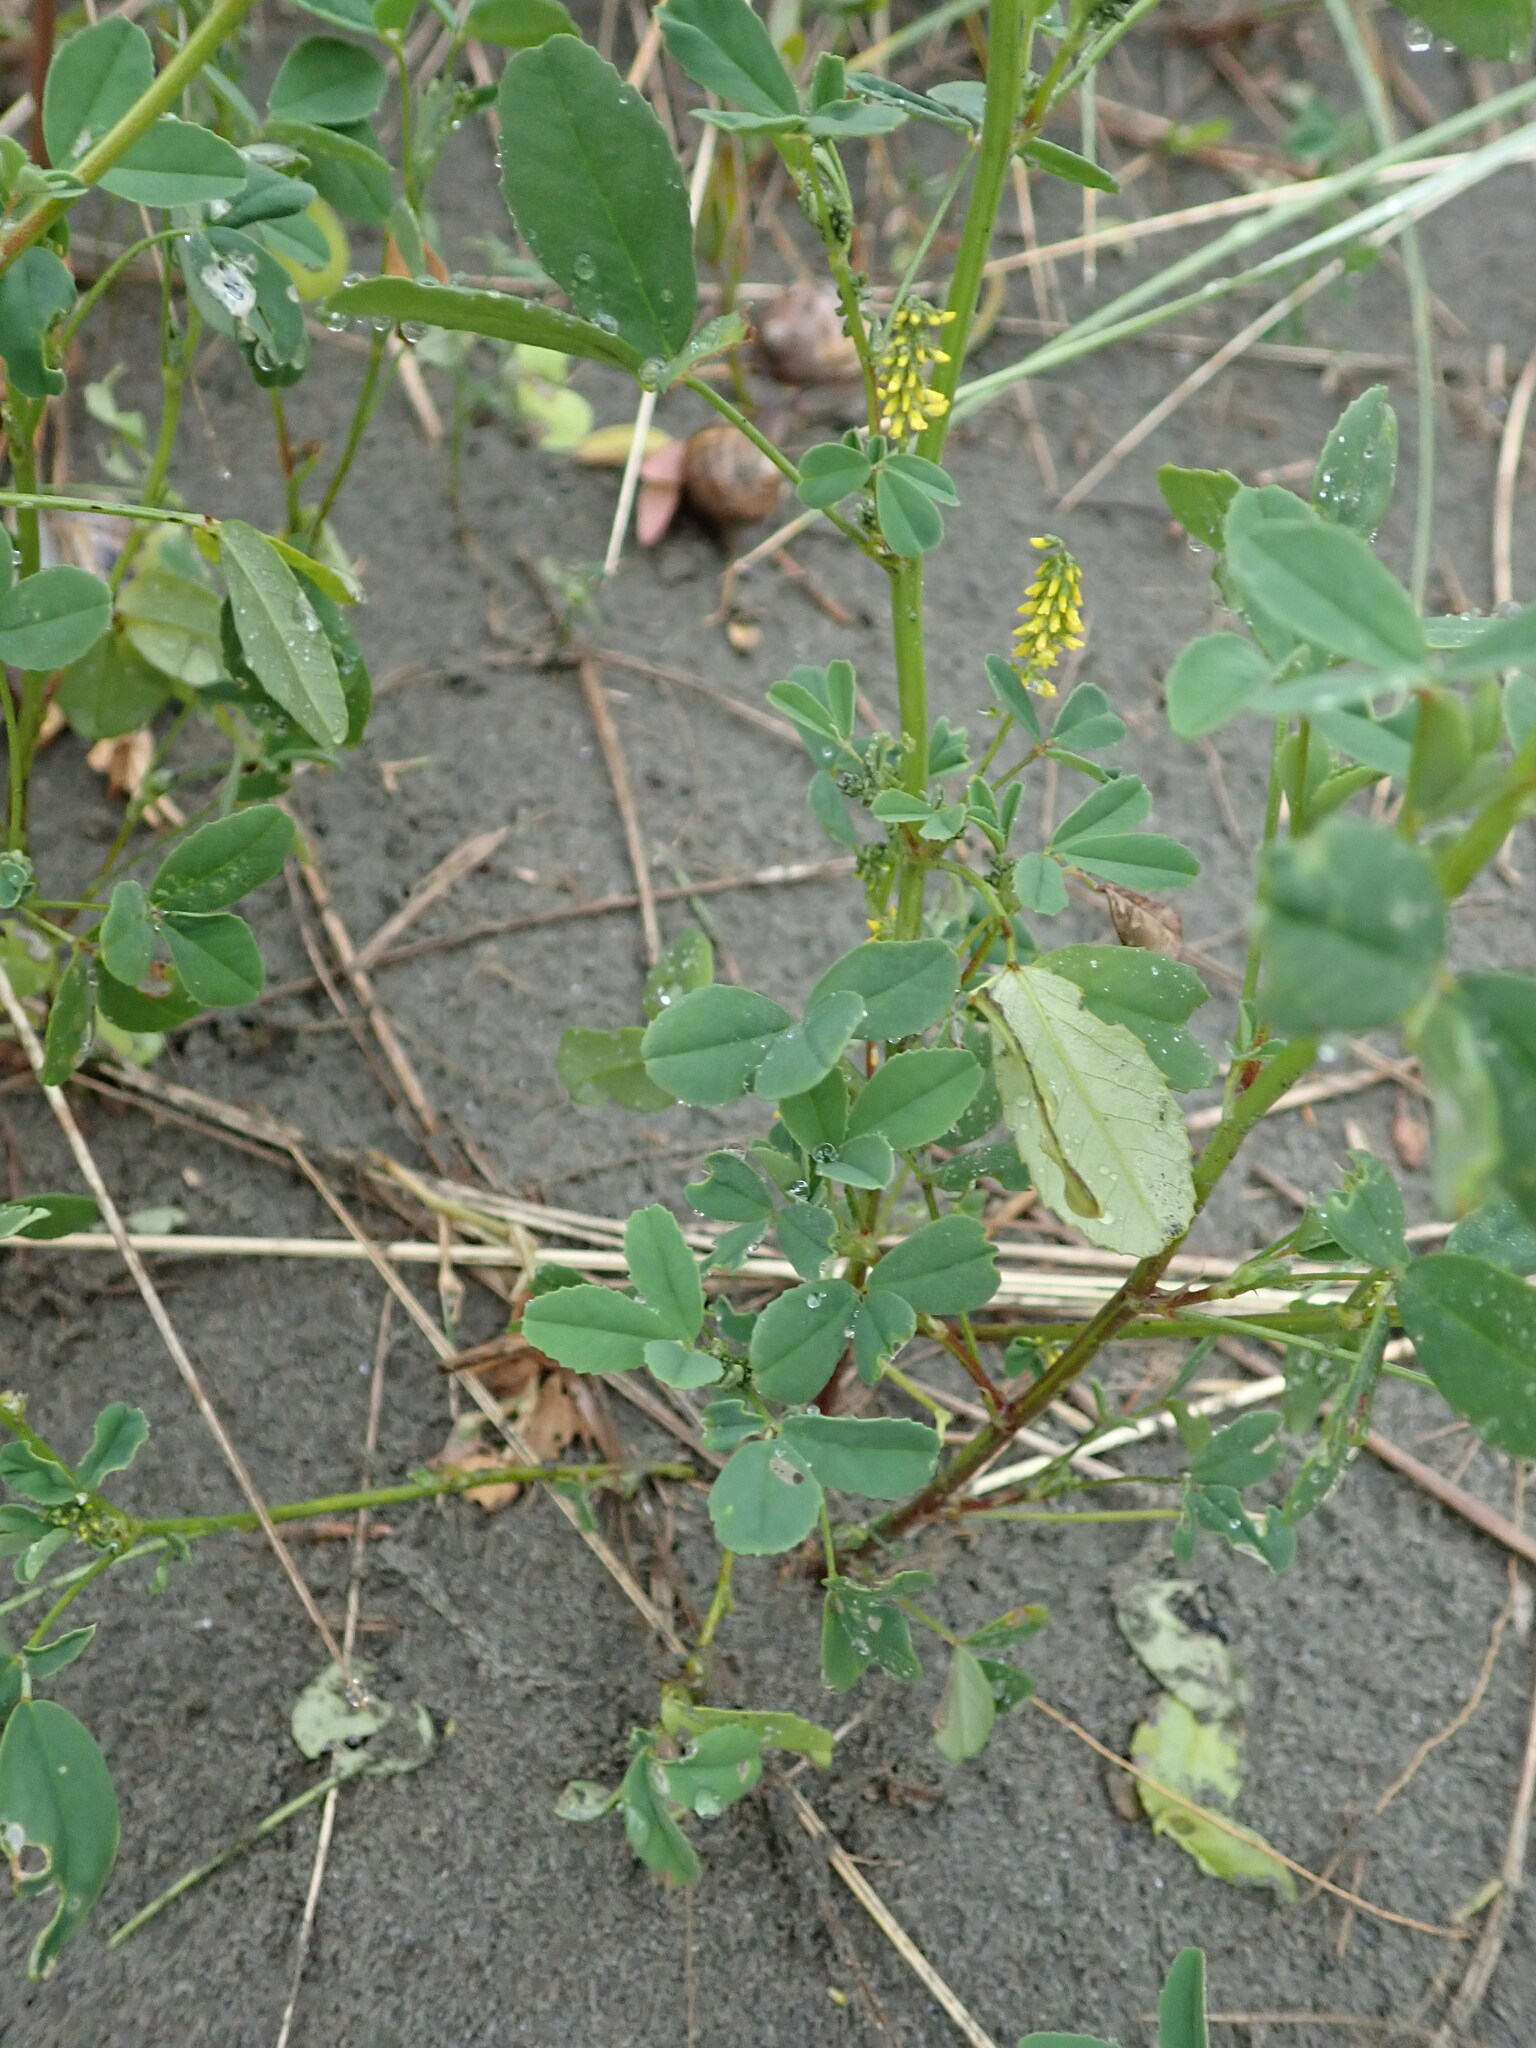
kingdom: Plantae
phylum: Tracheophyta
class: Magnoliopsida
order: Fabales
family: Fabaceae
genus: Melilotus
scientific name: Melilotus indicus
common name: Small melilot
